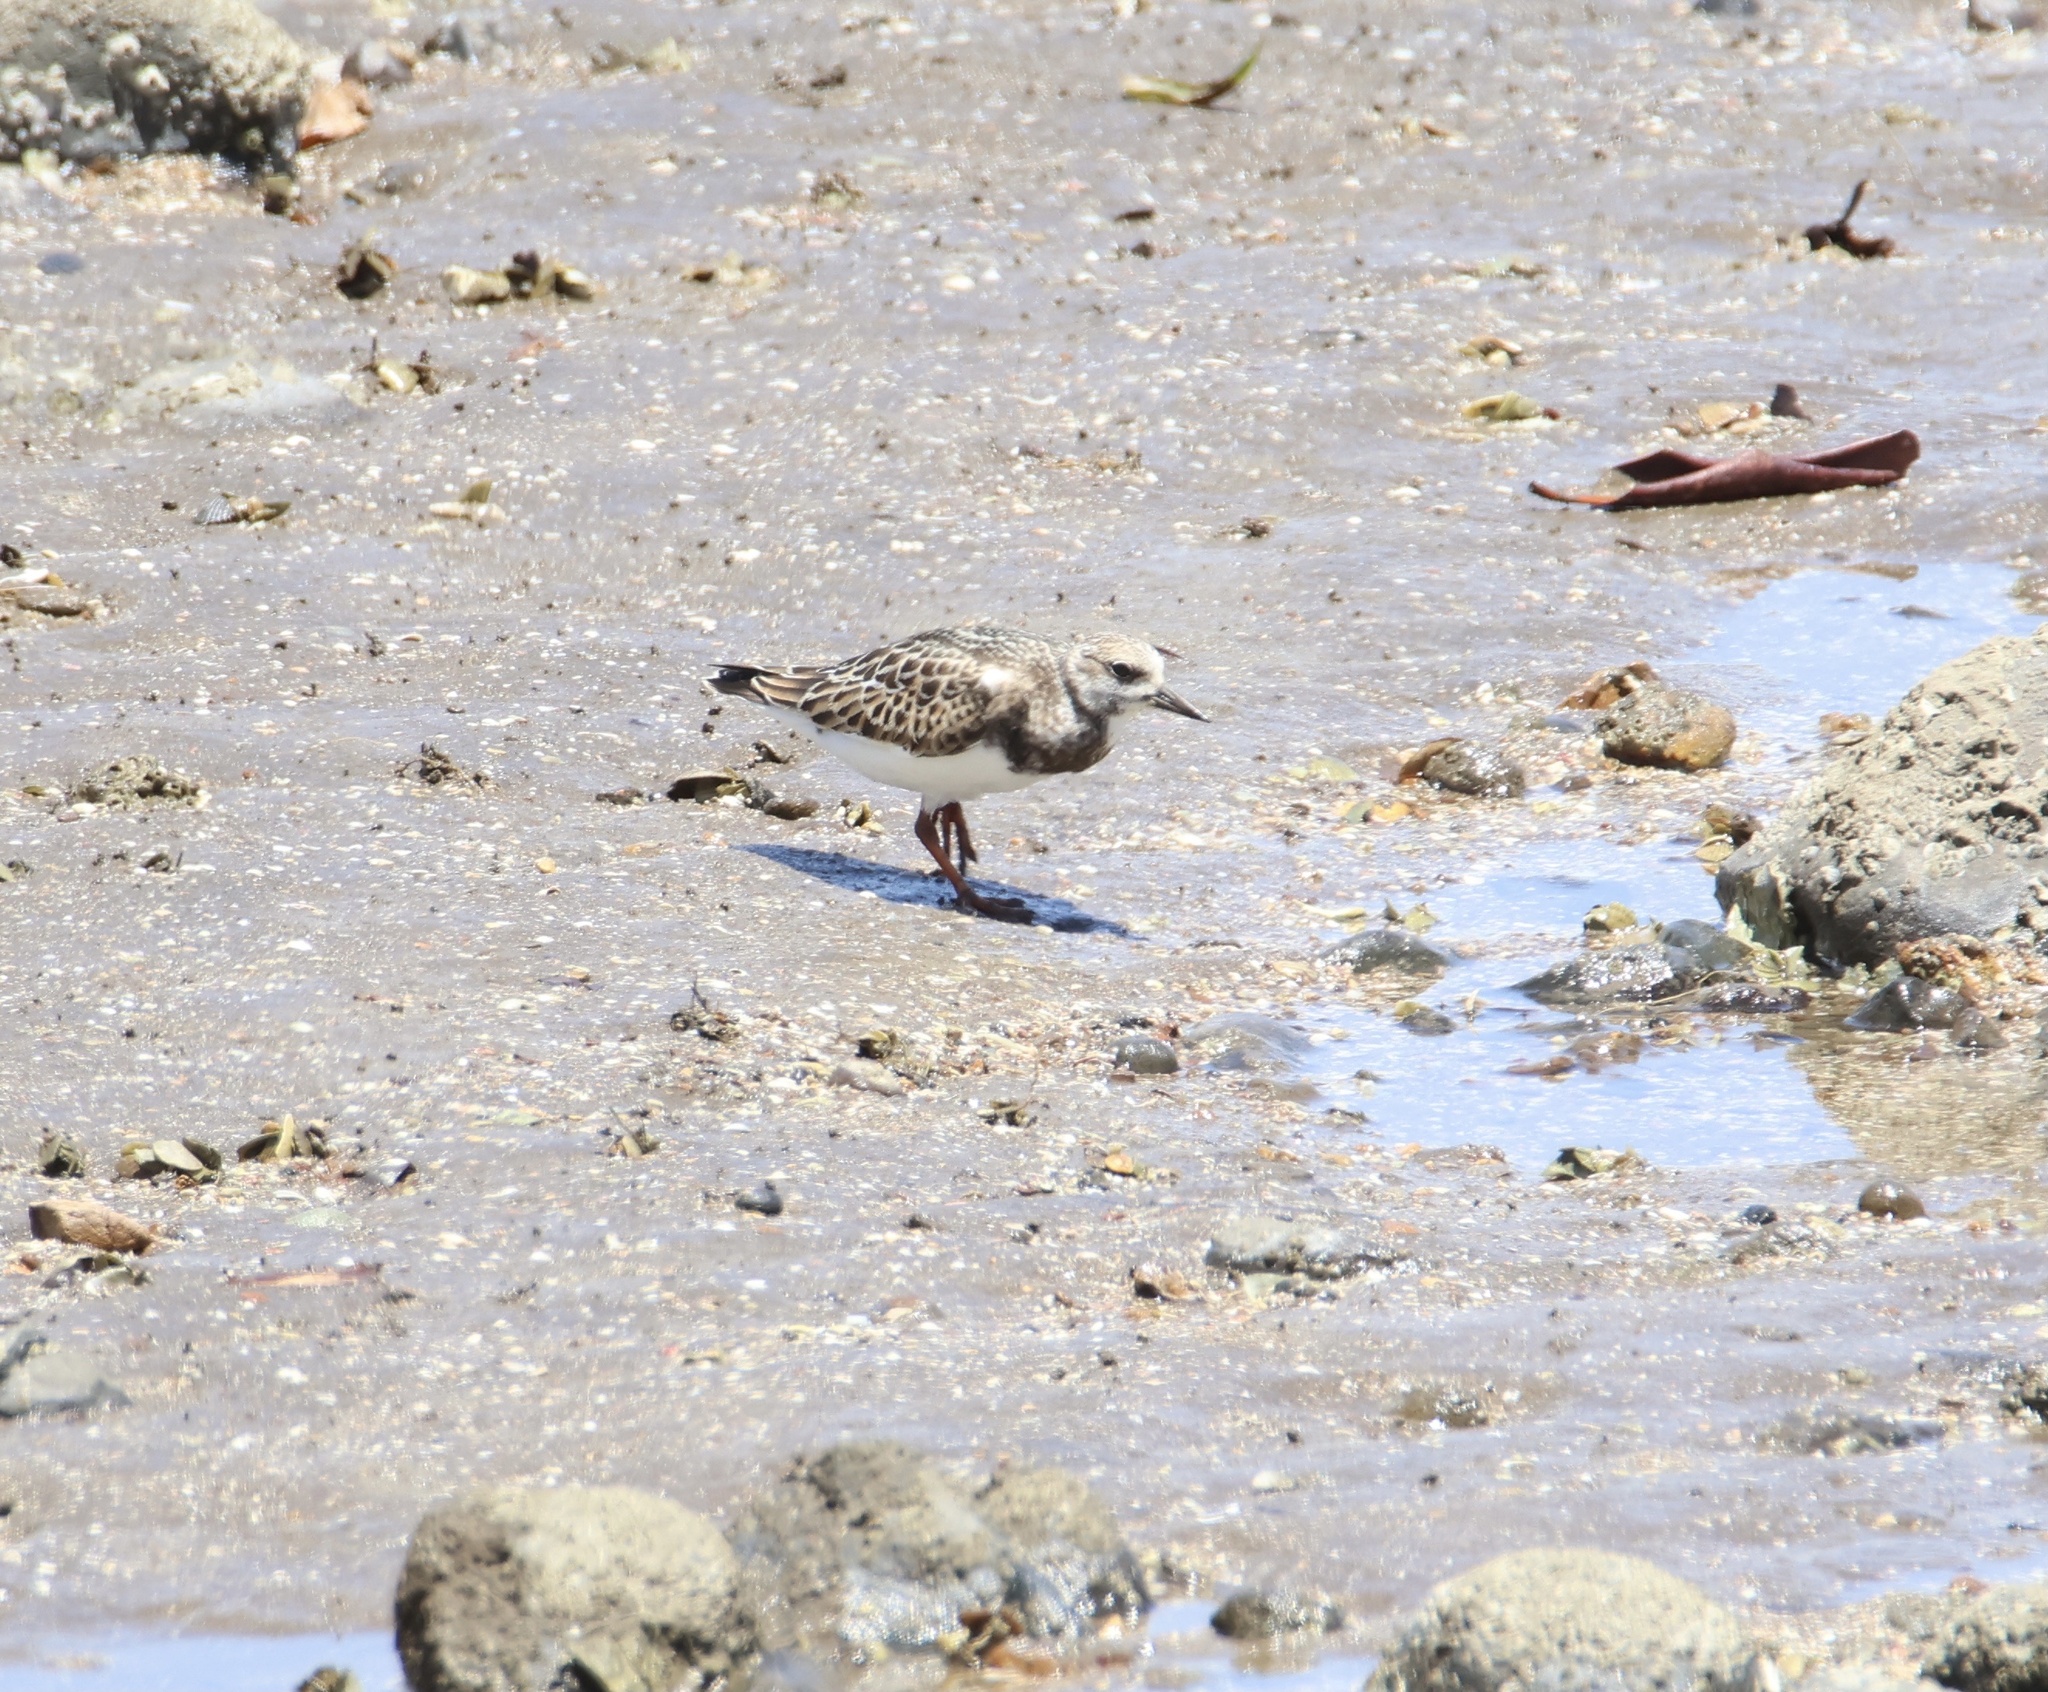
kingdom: Animalia
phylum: Chordata
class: Aves
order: Charadriiformes
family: Scolopacidae
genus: Arenaria
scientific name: Arenaria interpres
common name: Ruddy turnstone
